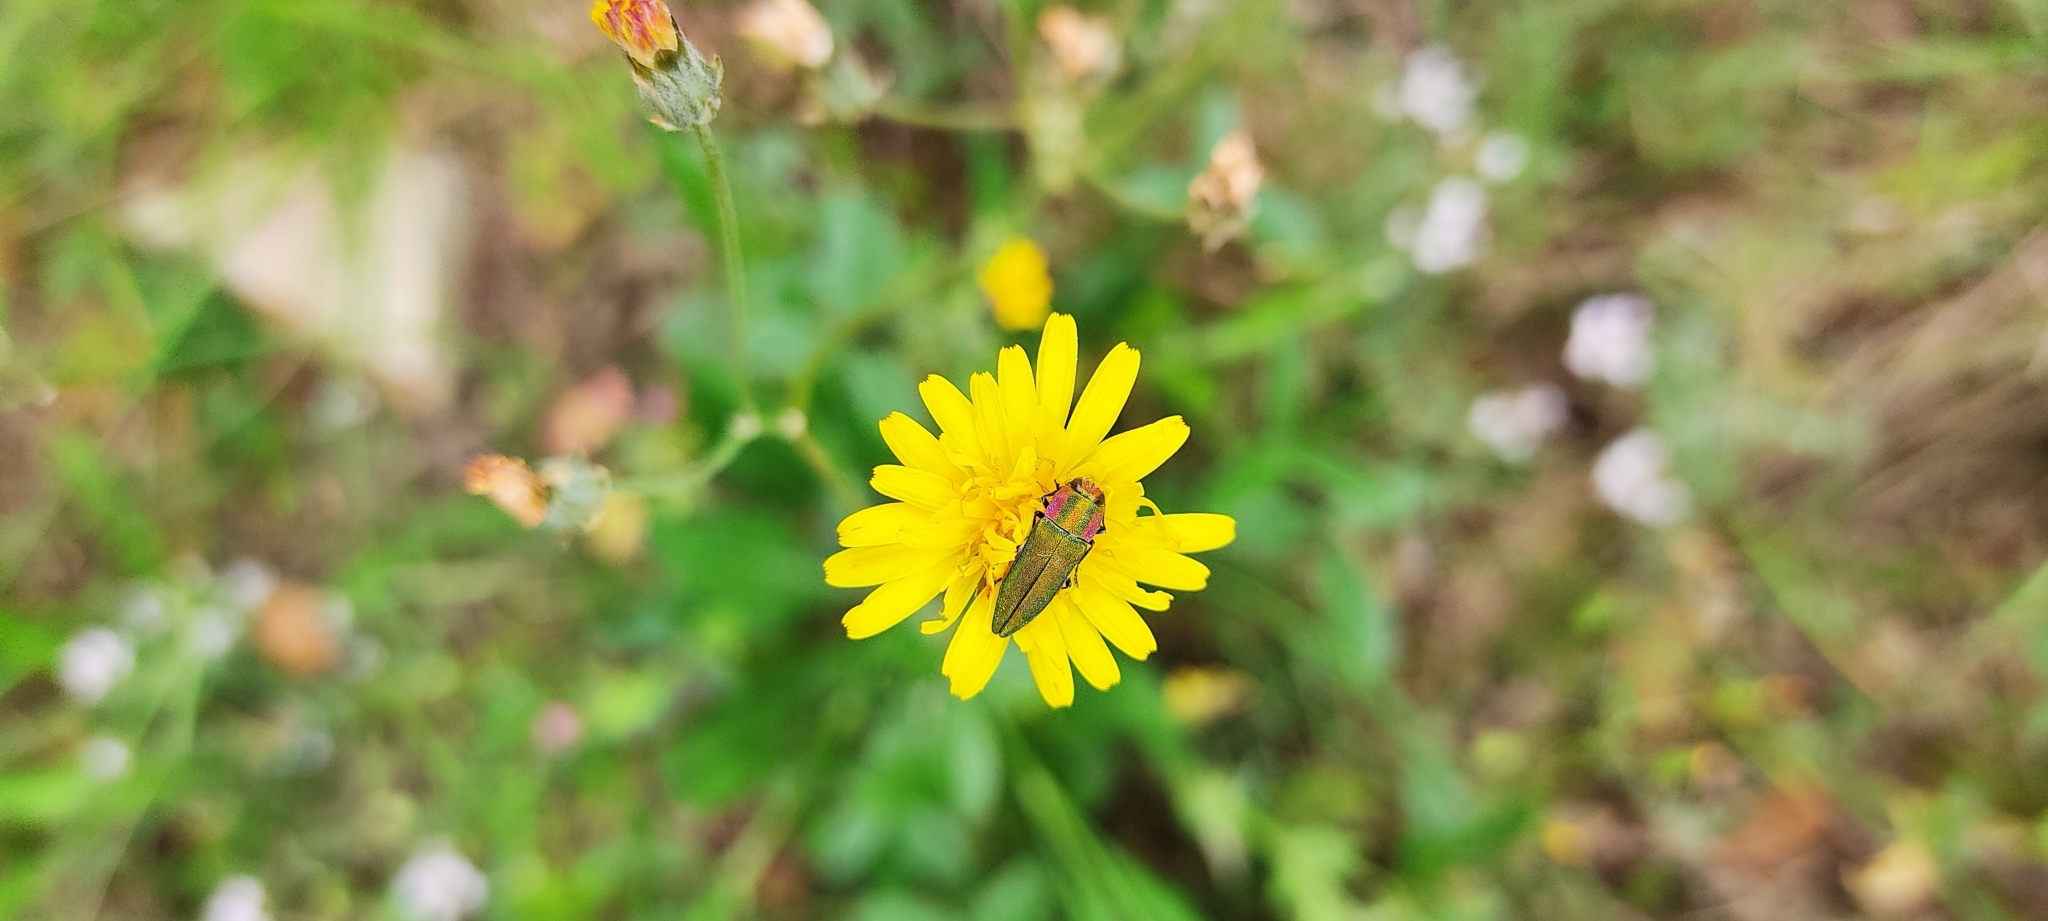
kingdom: Animalia
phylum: Arthropoda
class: Insecta
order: Coleoptera
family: Buprestidae
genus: Anthaxia
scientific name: Anthaxia hungarica
